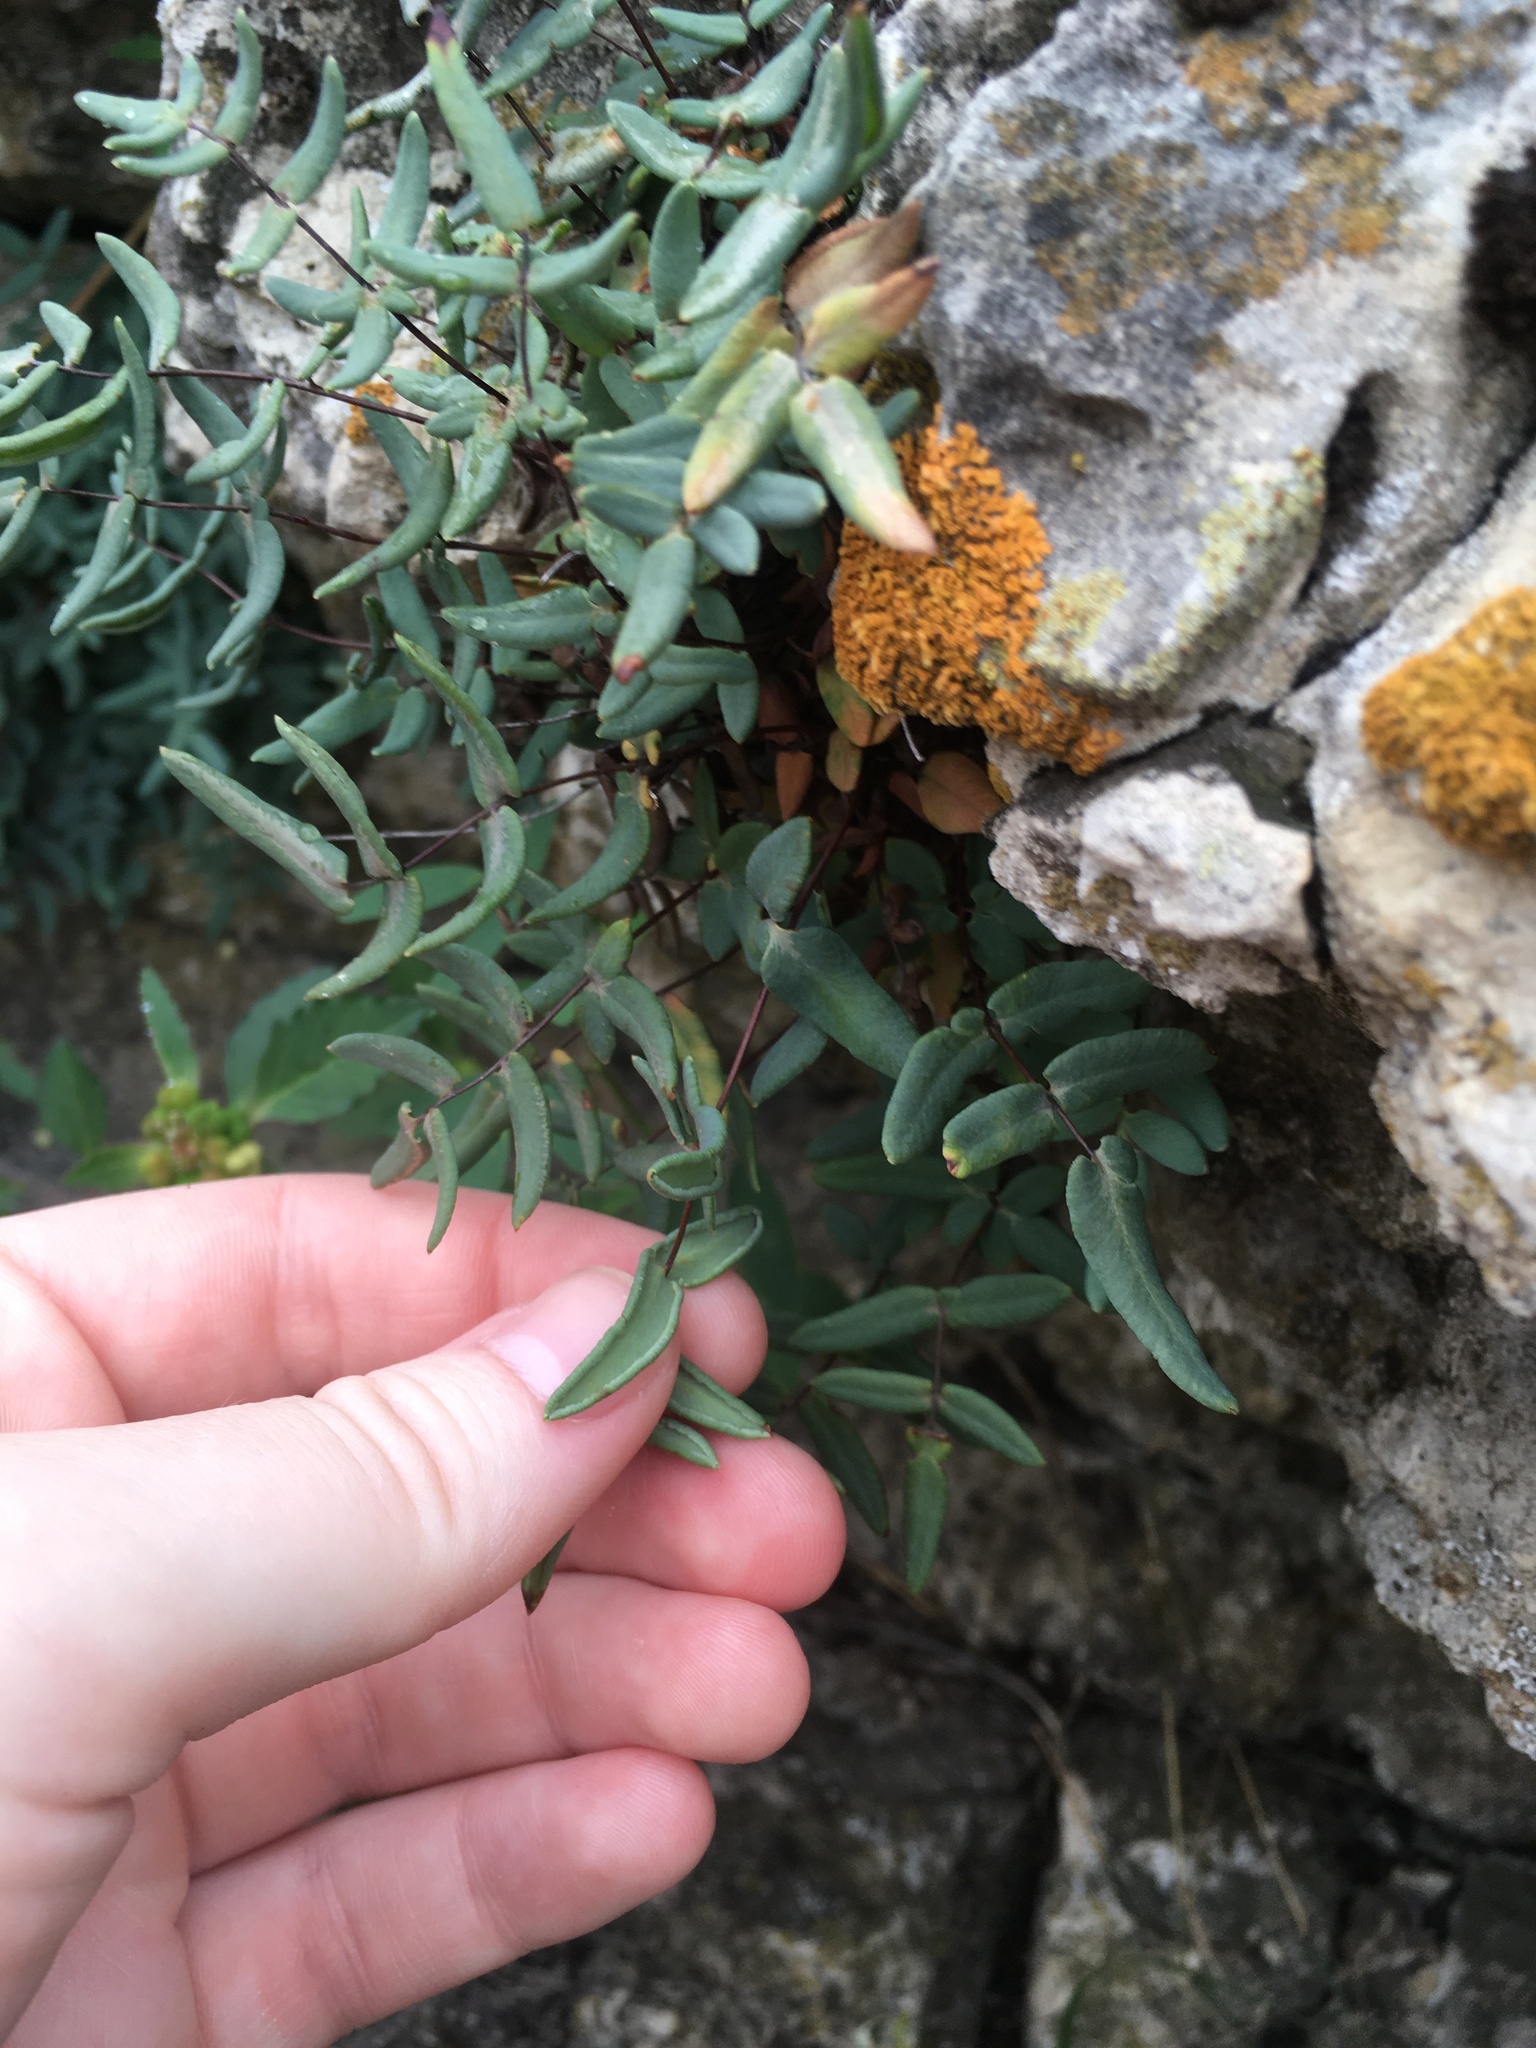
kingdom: Plantae
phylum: Tracheophyta
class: Polypodiopsida
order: Polypodiales
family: Pteridaceae
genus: Pellaea
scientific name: Pellaea glabella
